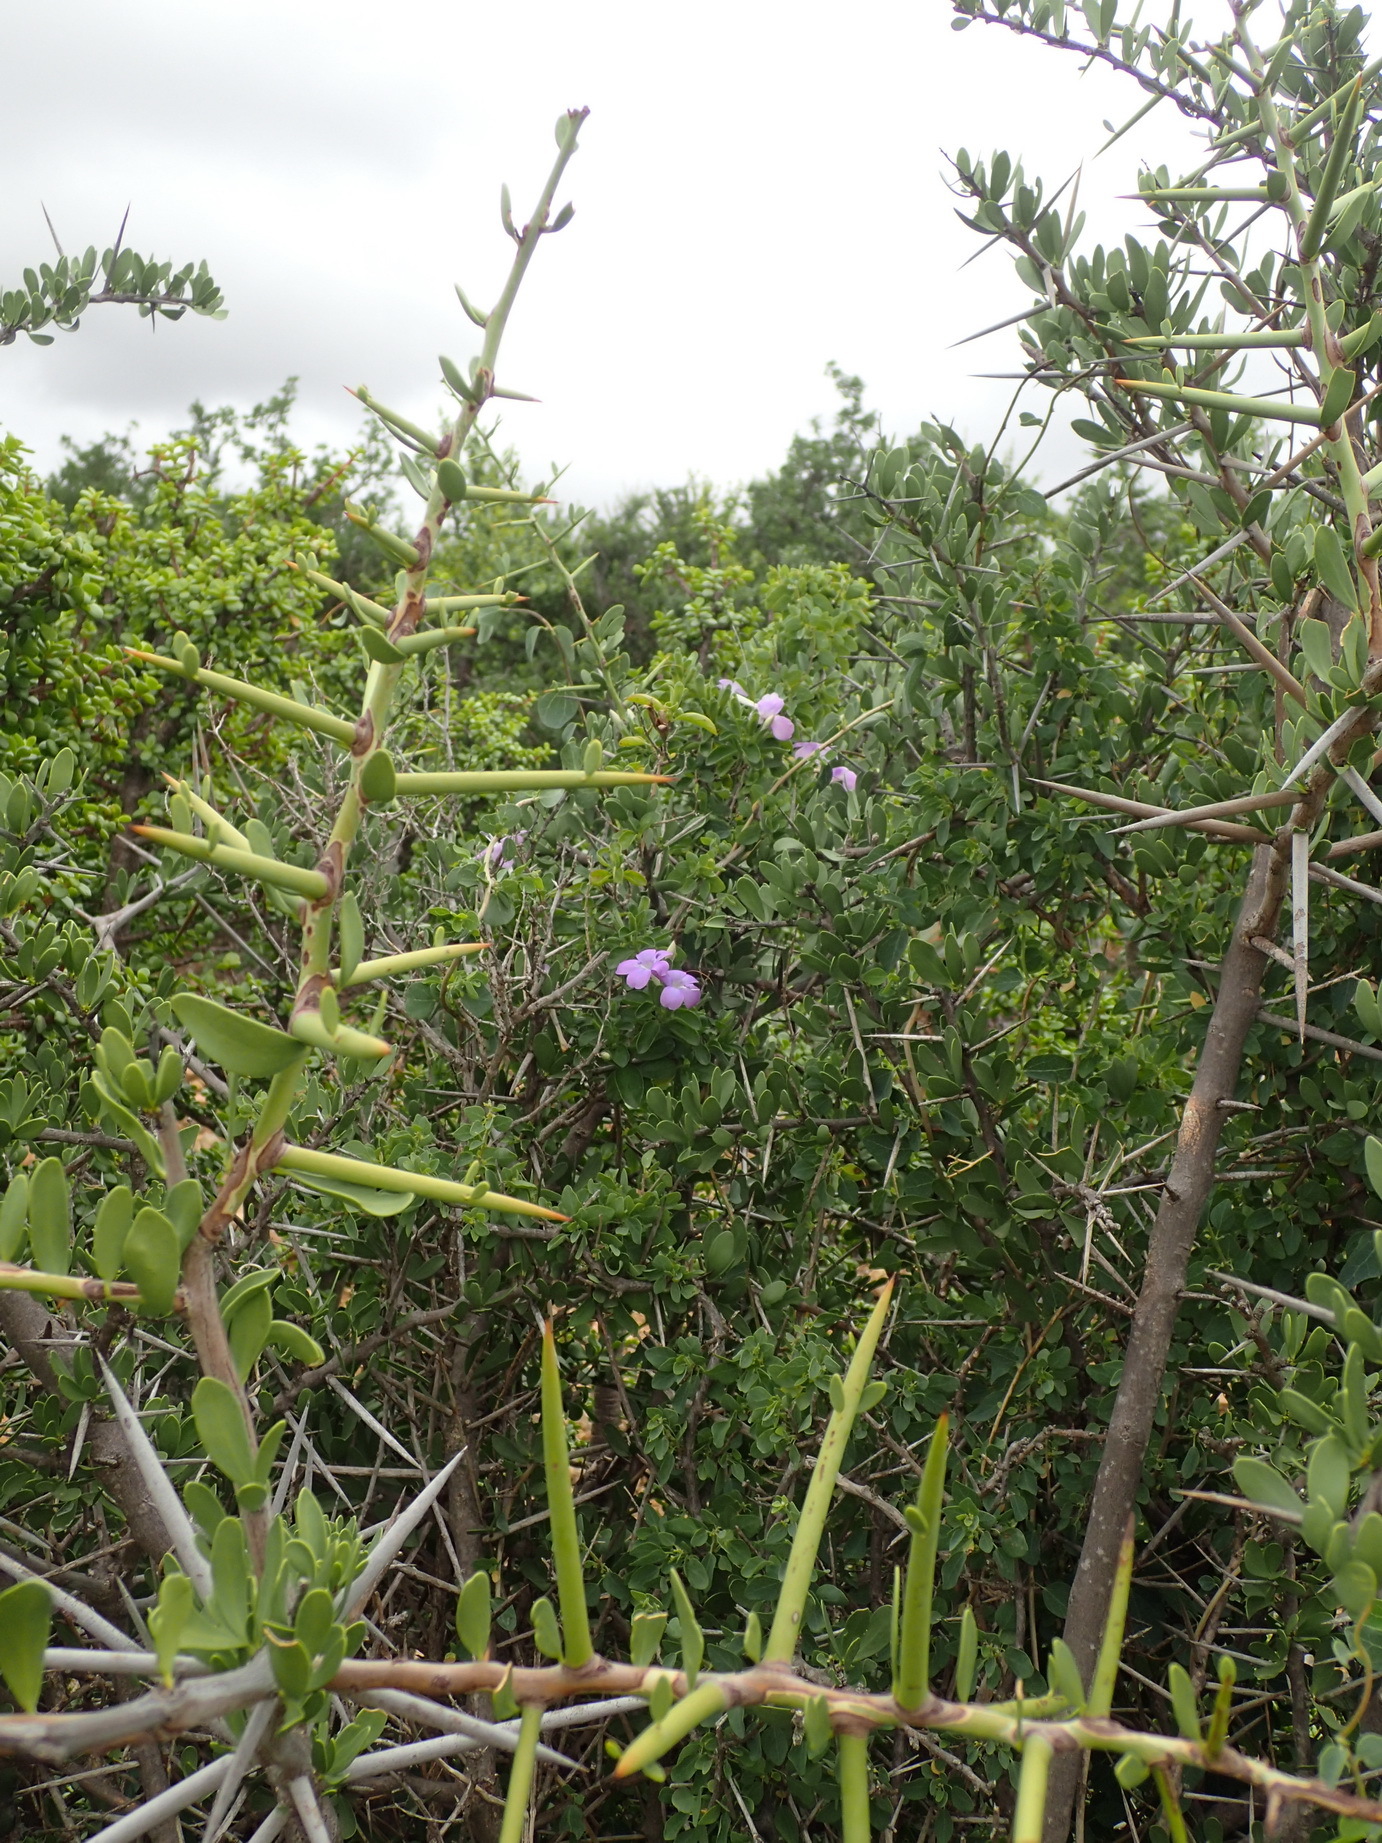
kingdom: Plantae
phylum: Tracheophyta
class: Magnoliopsida
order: Lamiales
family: Acanthaceae
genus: Barleria
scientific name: Barleria obtusa
